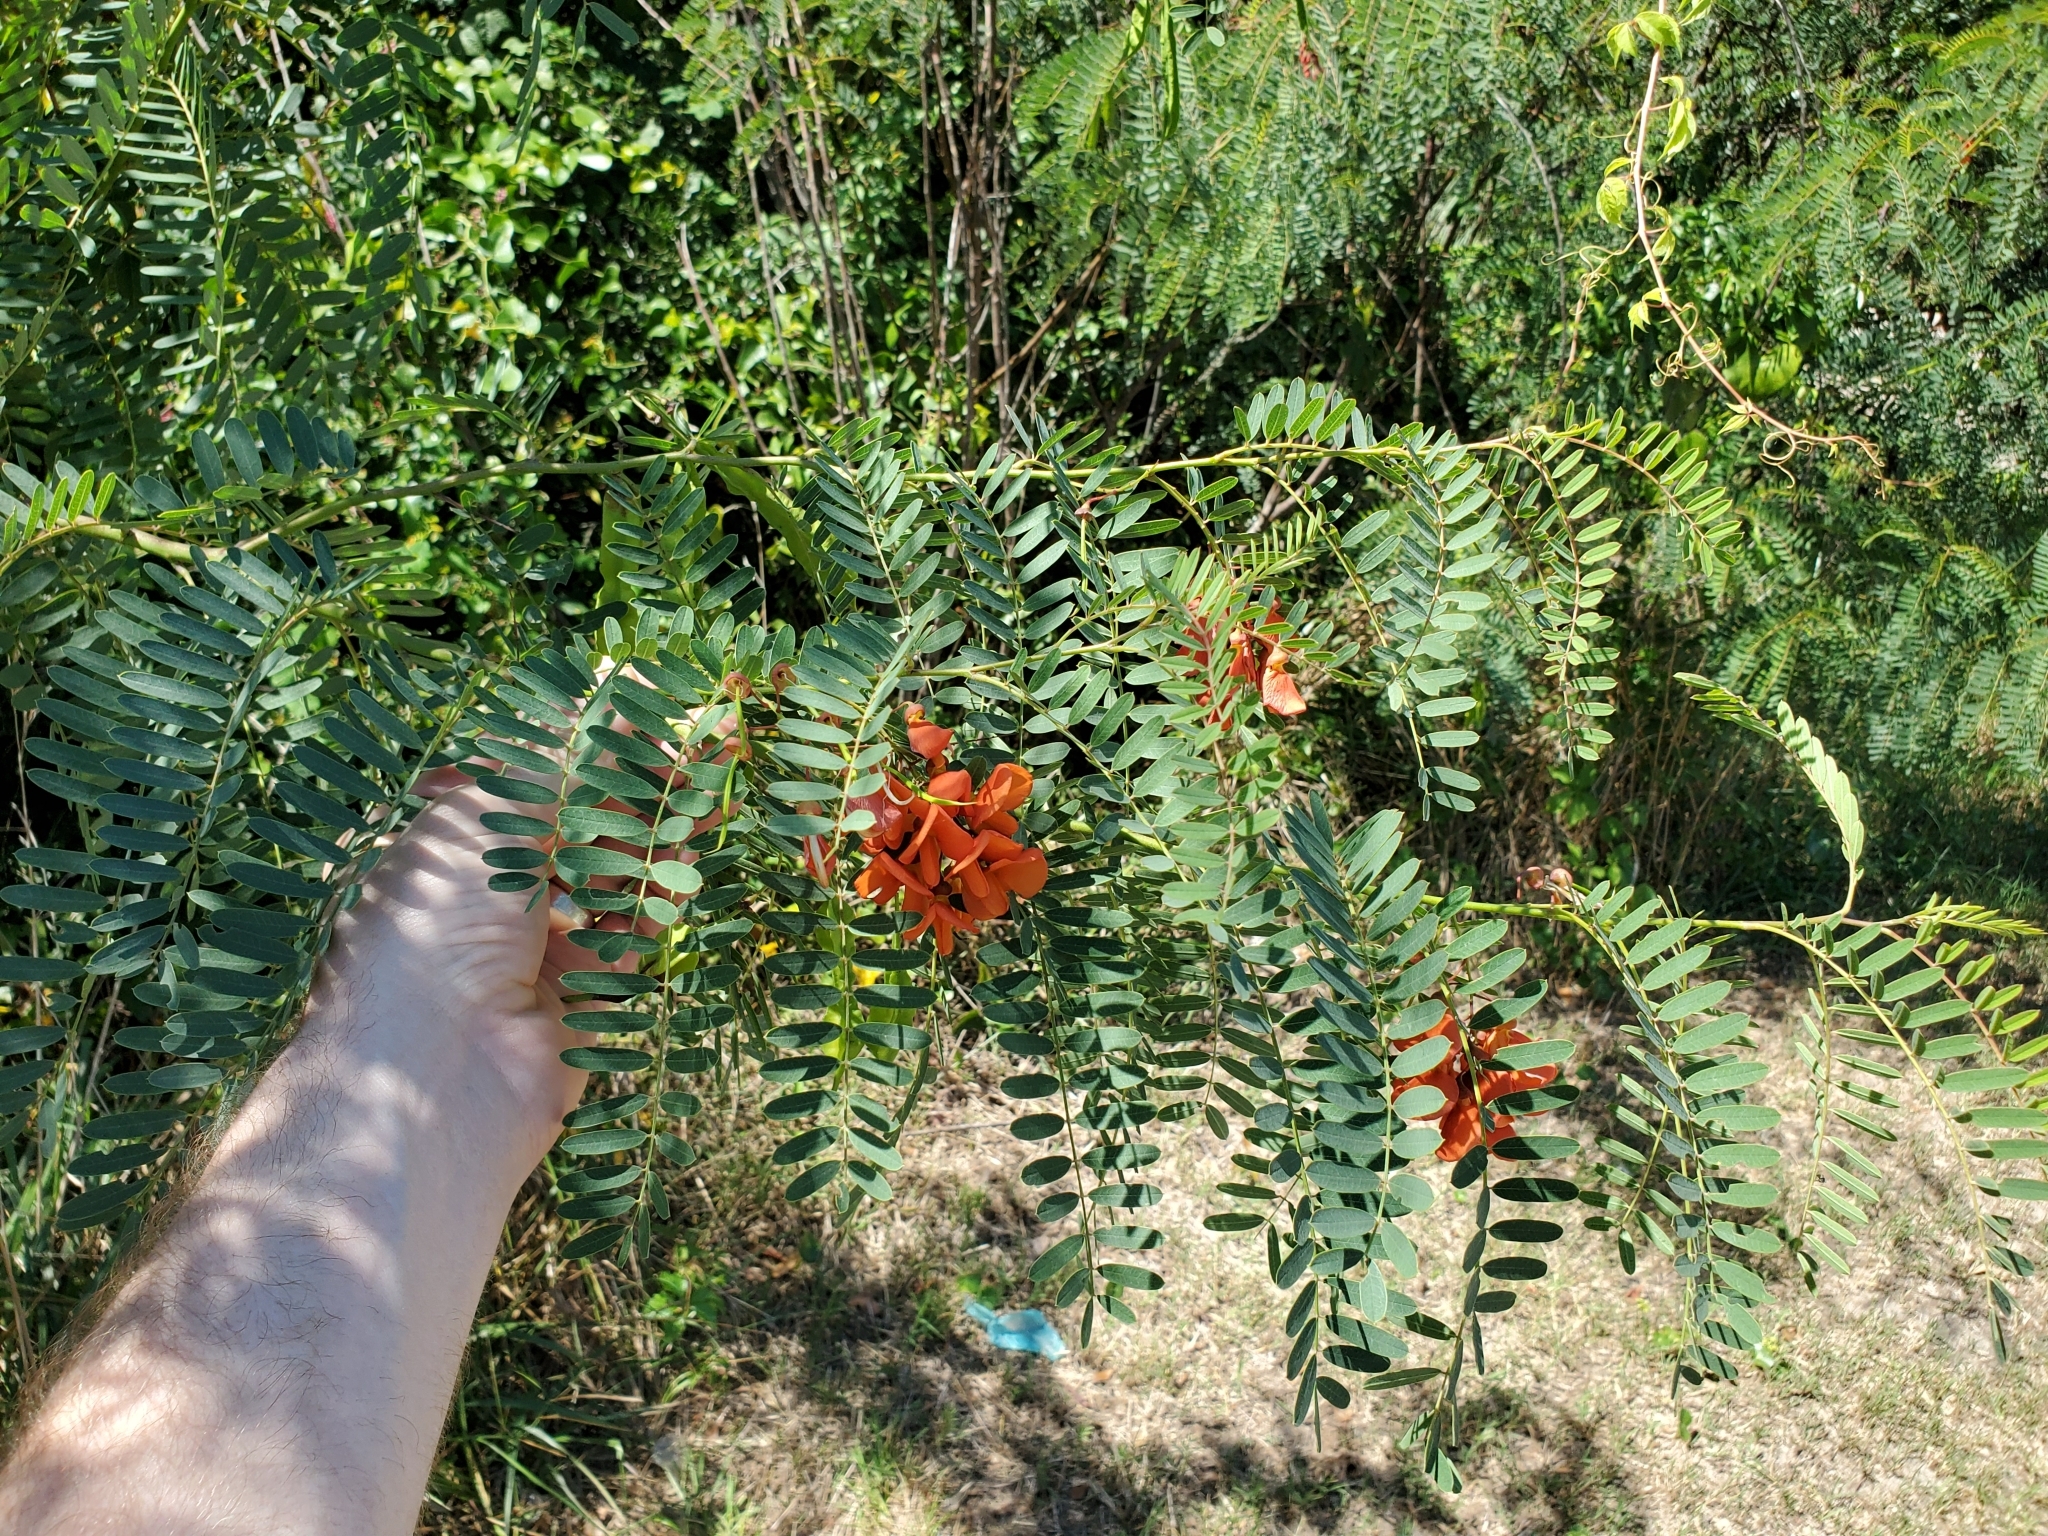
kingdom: Plantae
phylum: Tracheophyta
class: Magnoliopsida
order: Fabales
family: Fabaceae
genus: Sesbania
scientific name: Sesbania punicea
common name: Rattlebox
